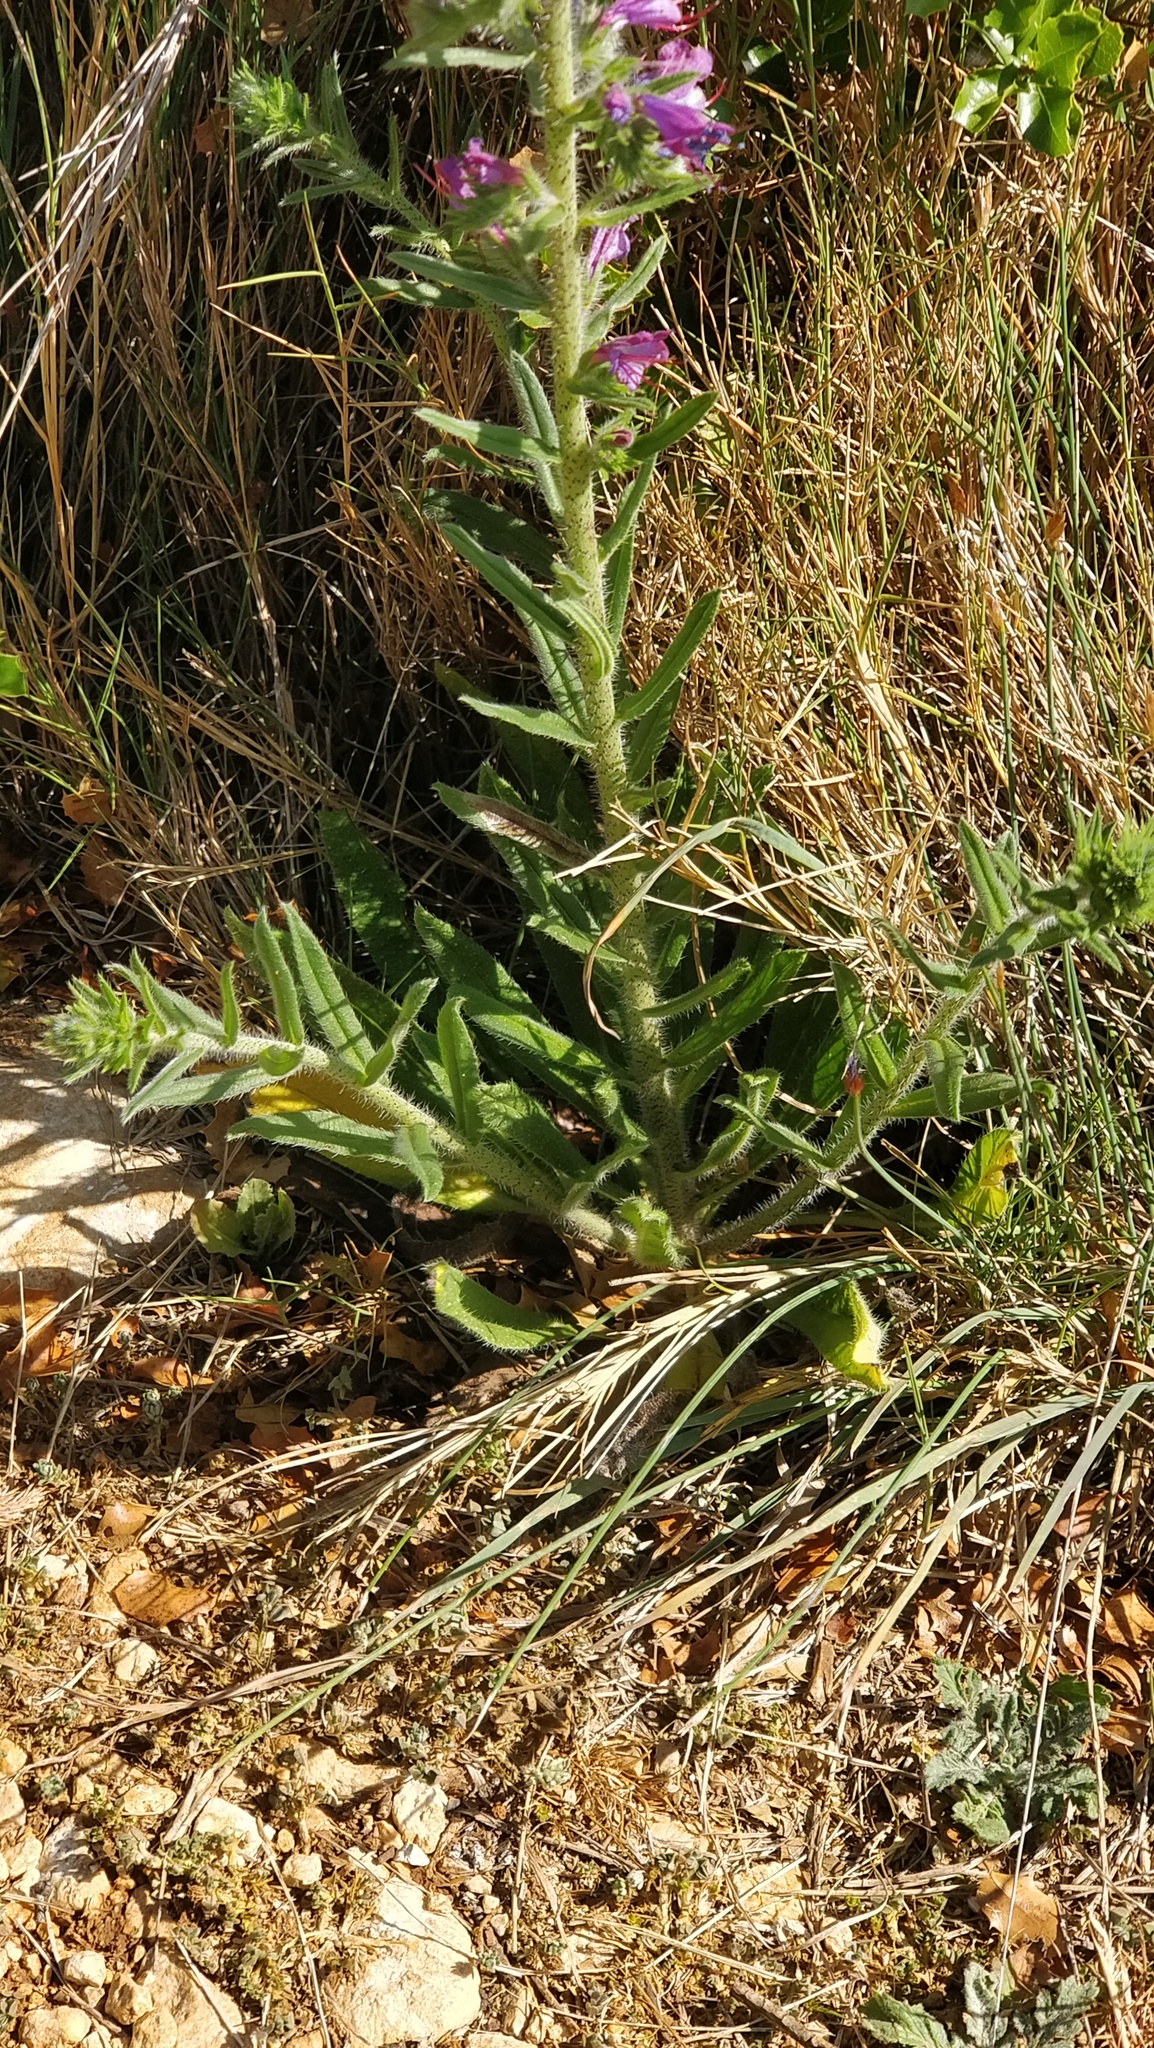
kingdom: Plantae
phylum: Tracheophyta
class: Magnoliopsida
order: Boraginales
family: Boraginaceae
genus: Echium
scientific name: Echium vulgare
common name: Common viper's bugloss
